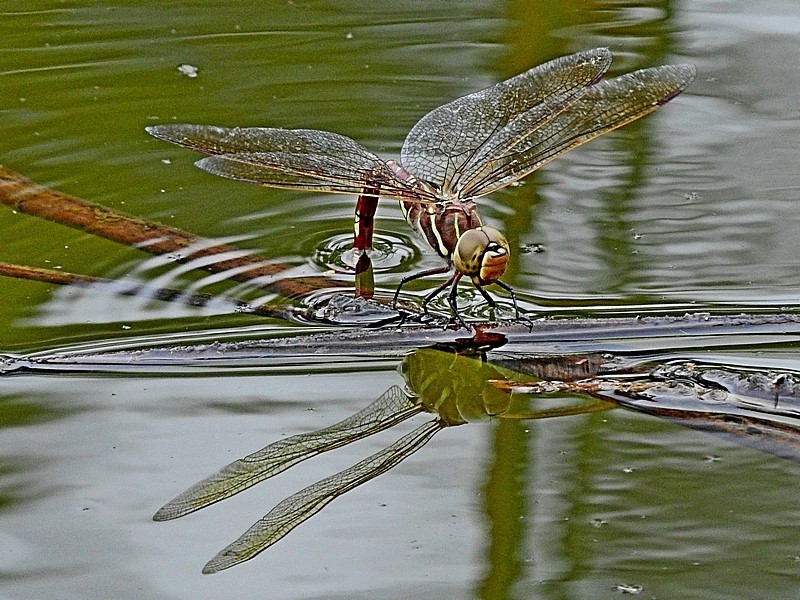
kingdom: Animalia
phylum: Arthropoda
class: Insecta
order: Odonata
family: Aeshnidae
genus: Aeshna
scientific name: Aeshna brevistyla
